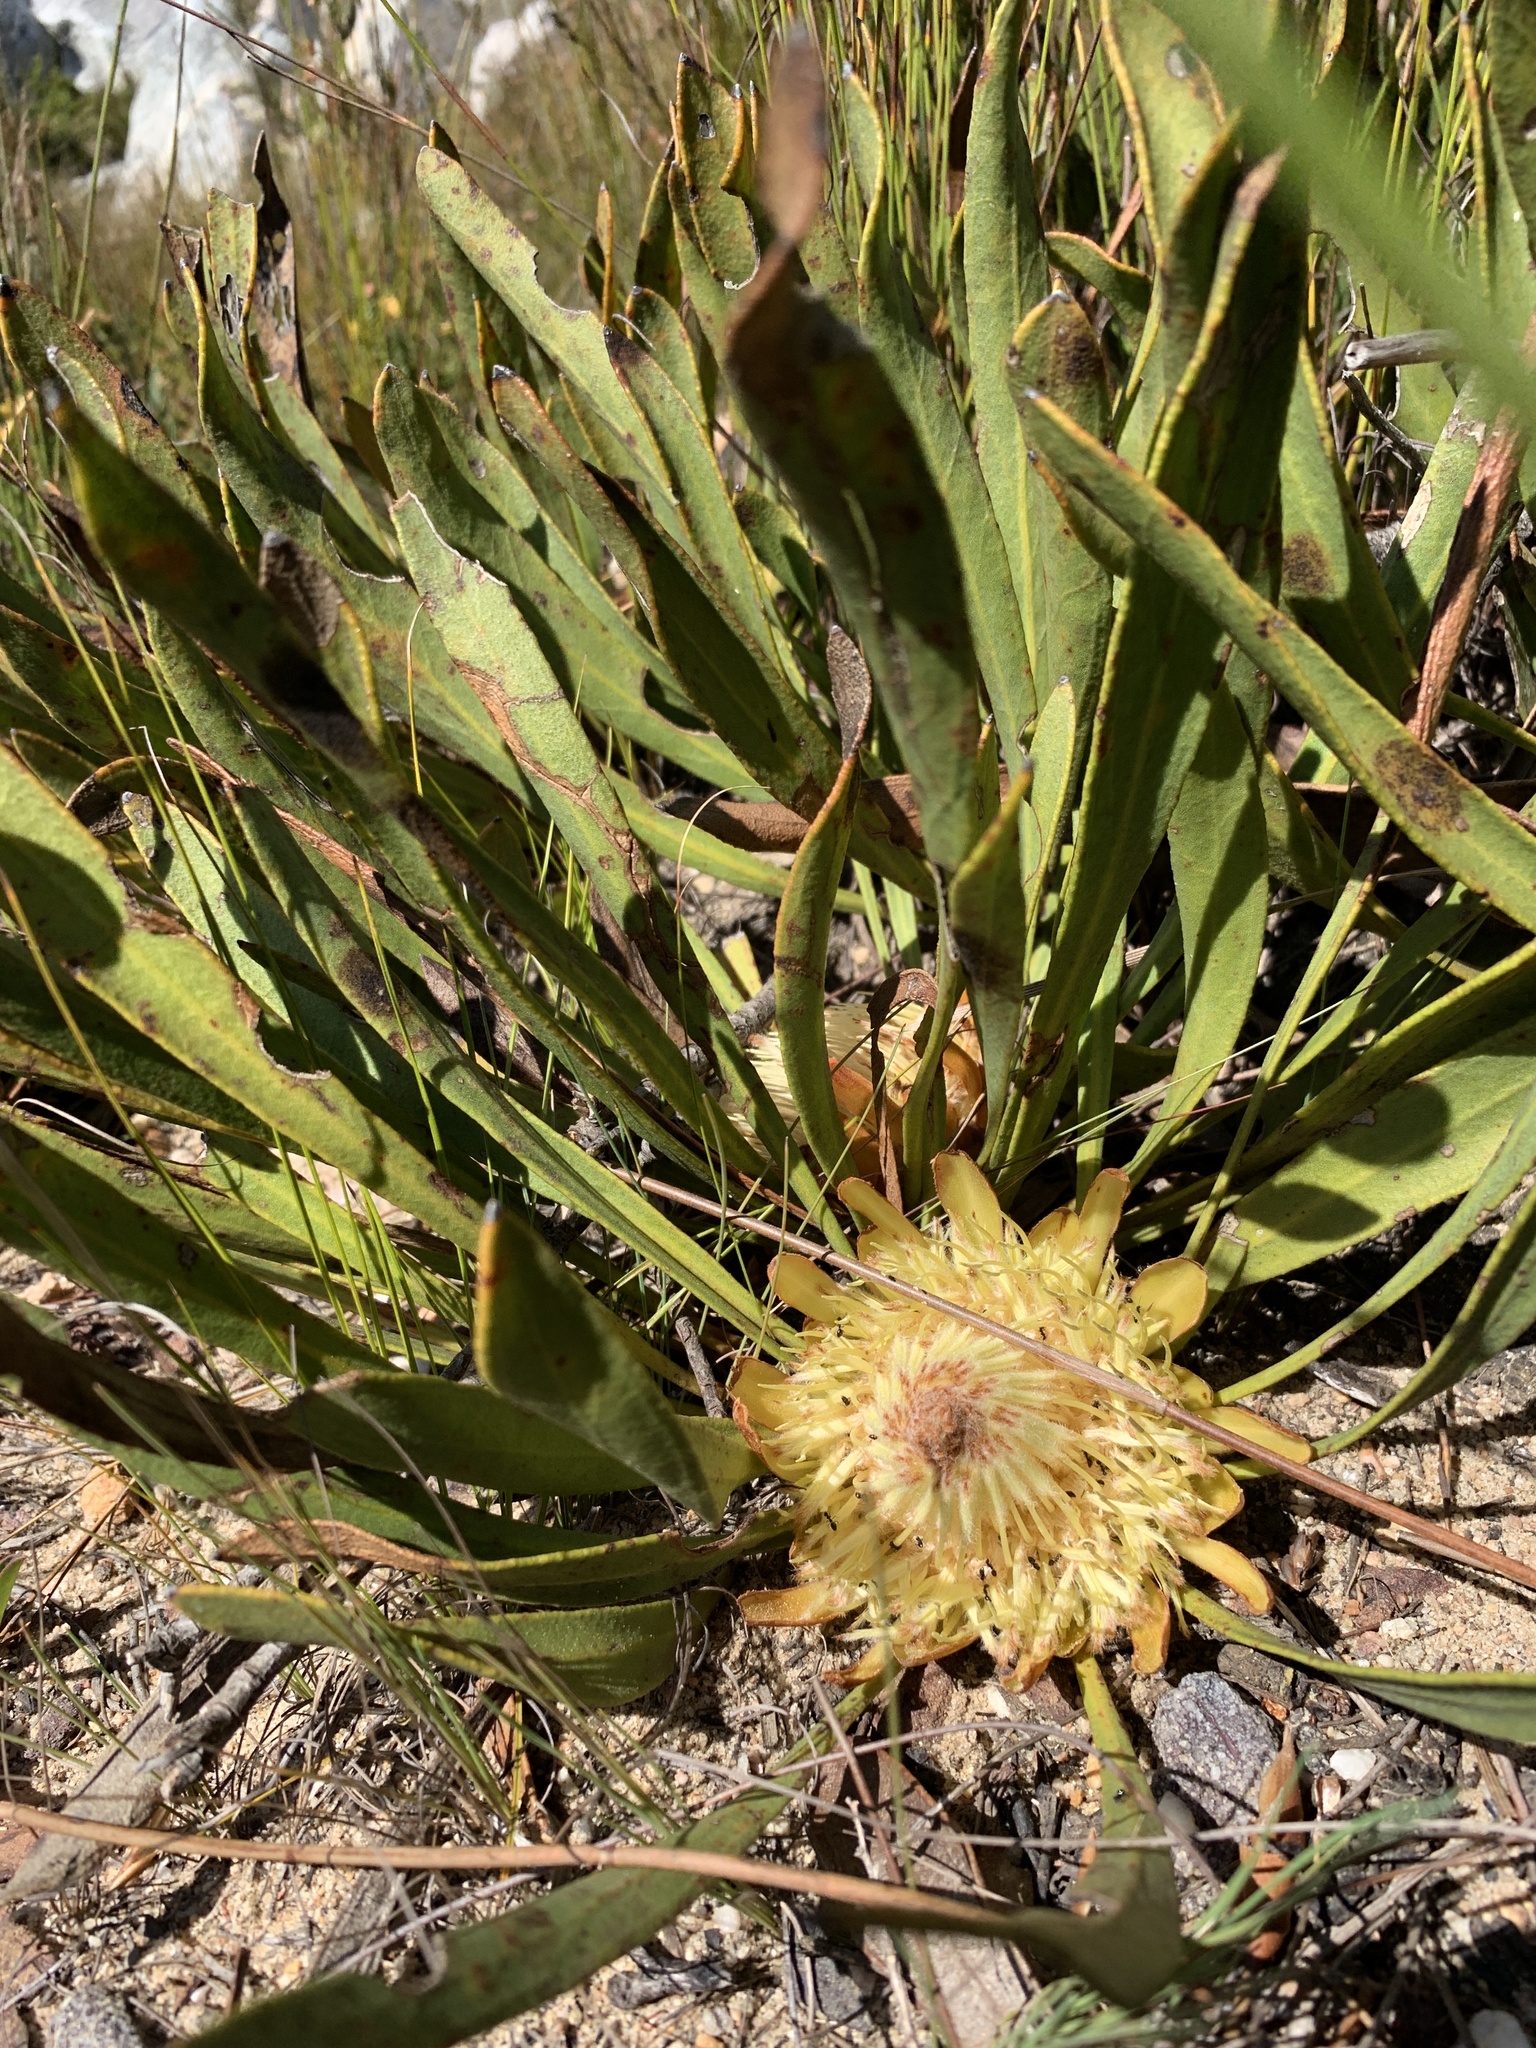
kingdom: Plantae
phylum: Tracheophyta
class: Magnoliopsida
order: Proteales
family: Proteaceae
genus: Protea
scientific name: Protea scabra
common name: Sandpaper-leaf sugarbush
